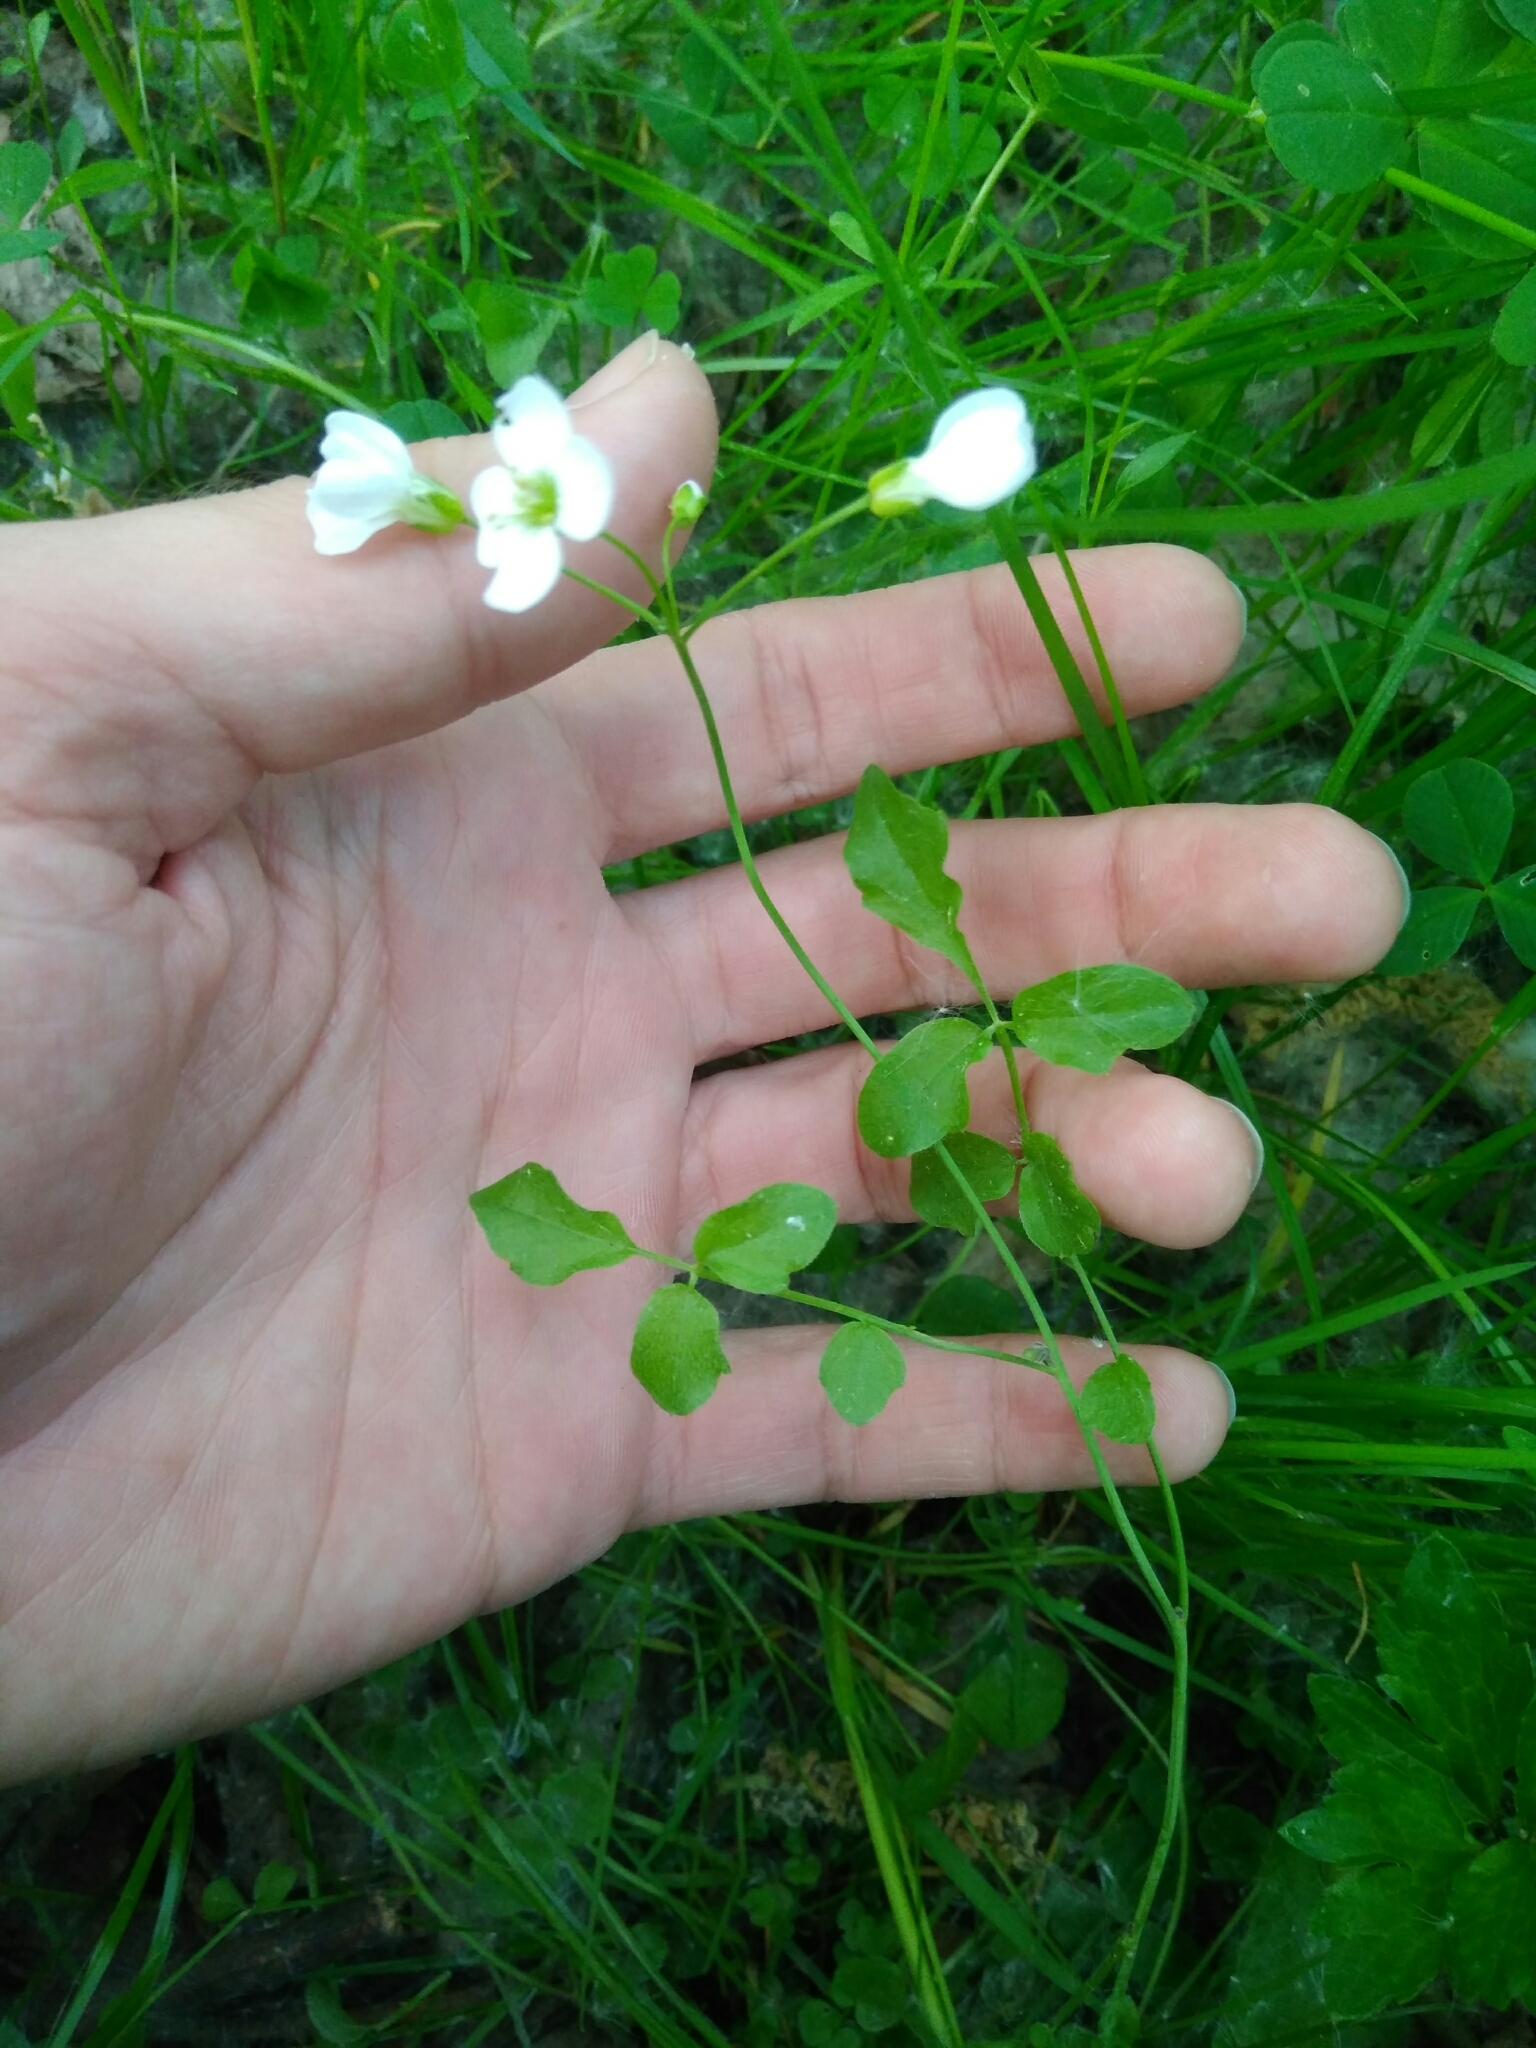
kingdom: Plantae
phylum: Tracheophyta
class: Magnoliopsida
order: Brassicales
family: Brassicaceae
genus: Cardamine
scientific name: Cardamine dentata
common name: Toothed bittercress
